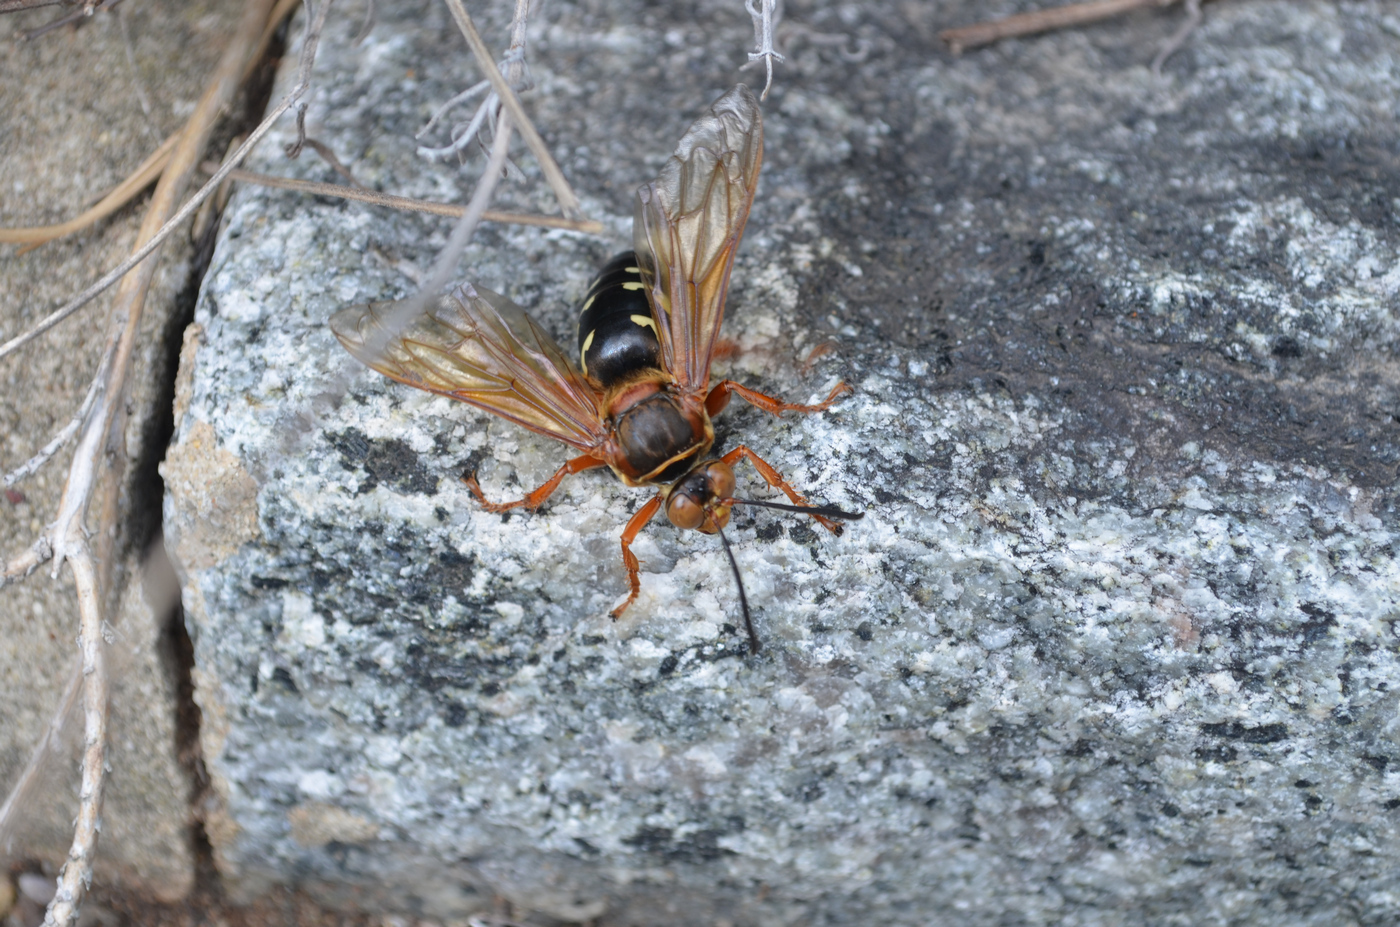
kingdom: Animalia
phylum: Arthropoda
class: Insecta
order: Hymenoptera
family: Crabronidae
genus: Sphecius
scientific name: Sphecius speciosus
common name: Cicada killer
